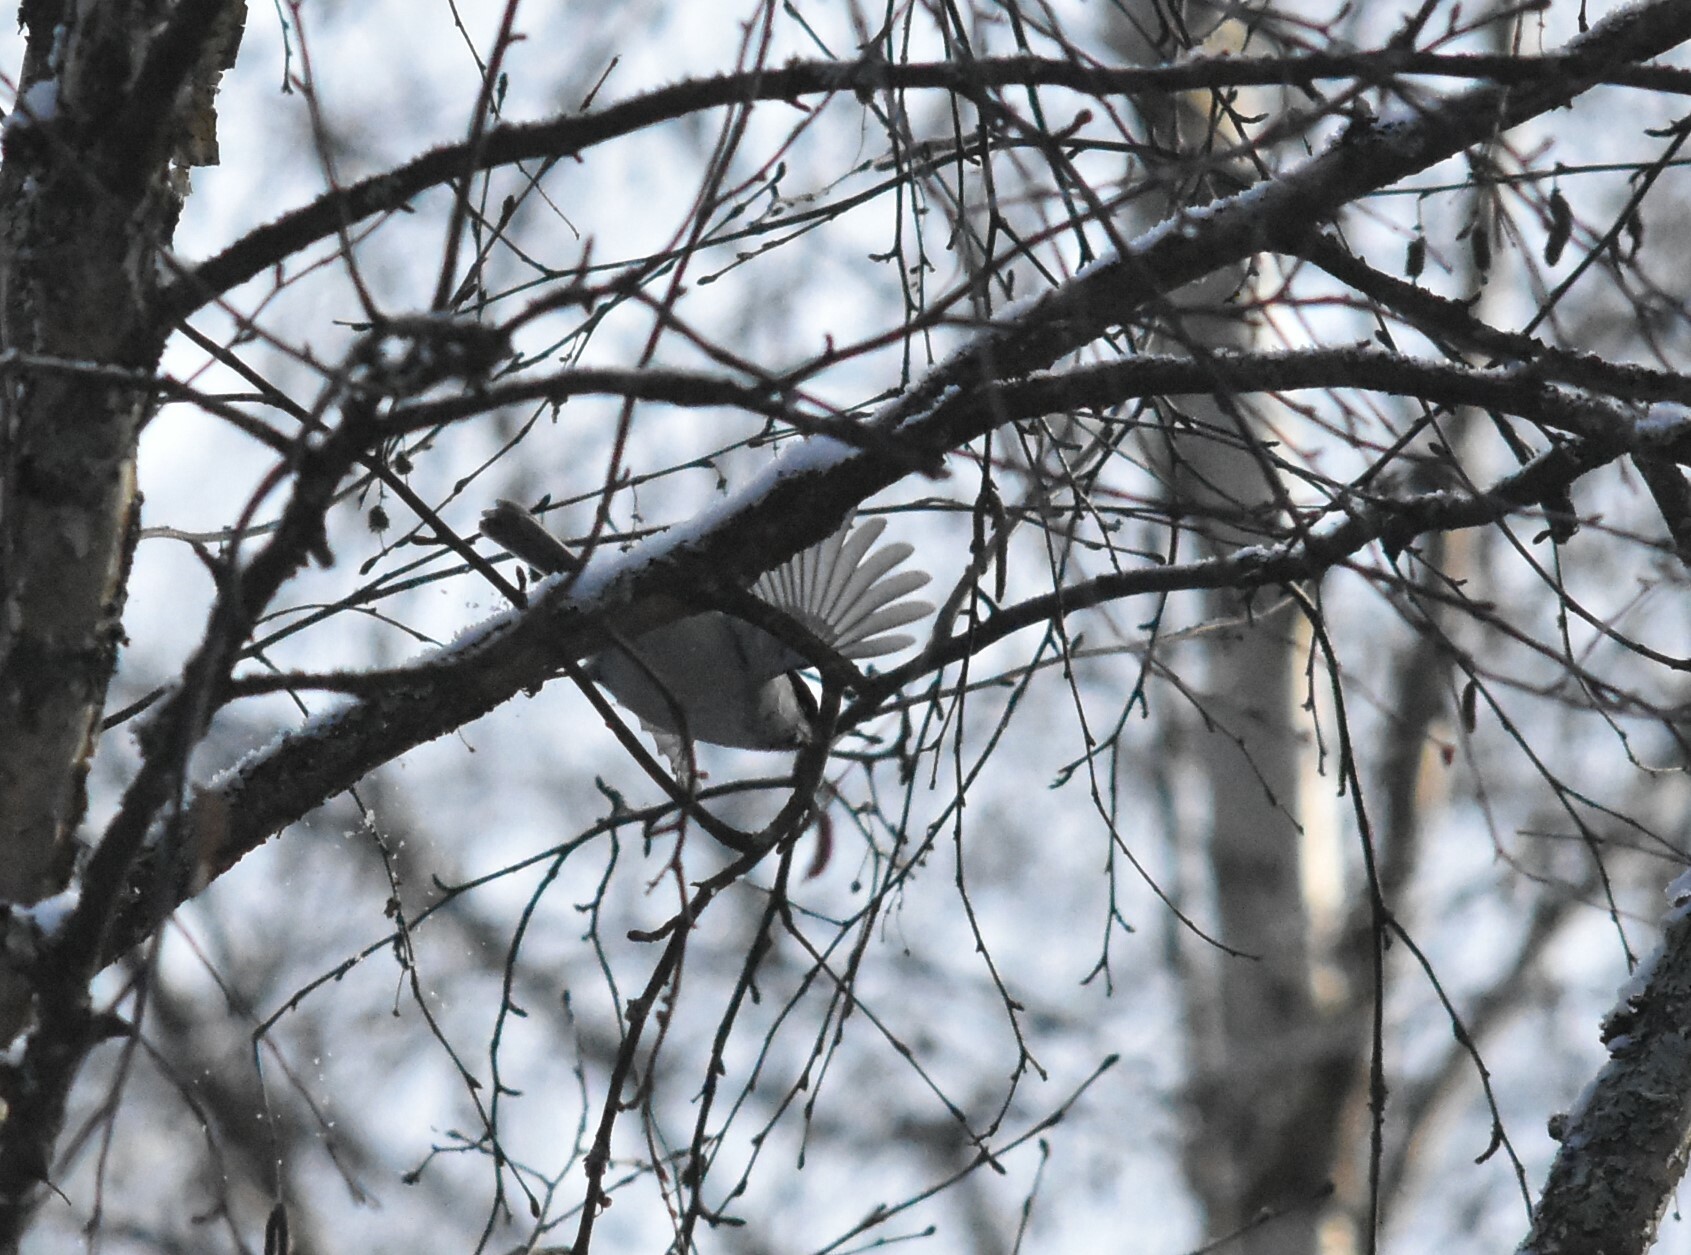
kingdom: Animalia
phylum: Chordata
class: Aves
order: Passeriformes
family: Paridae
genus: Poecile
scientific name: Poecile montanus
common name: Willow tit
